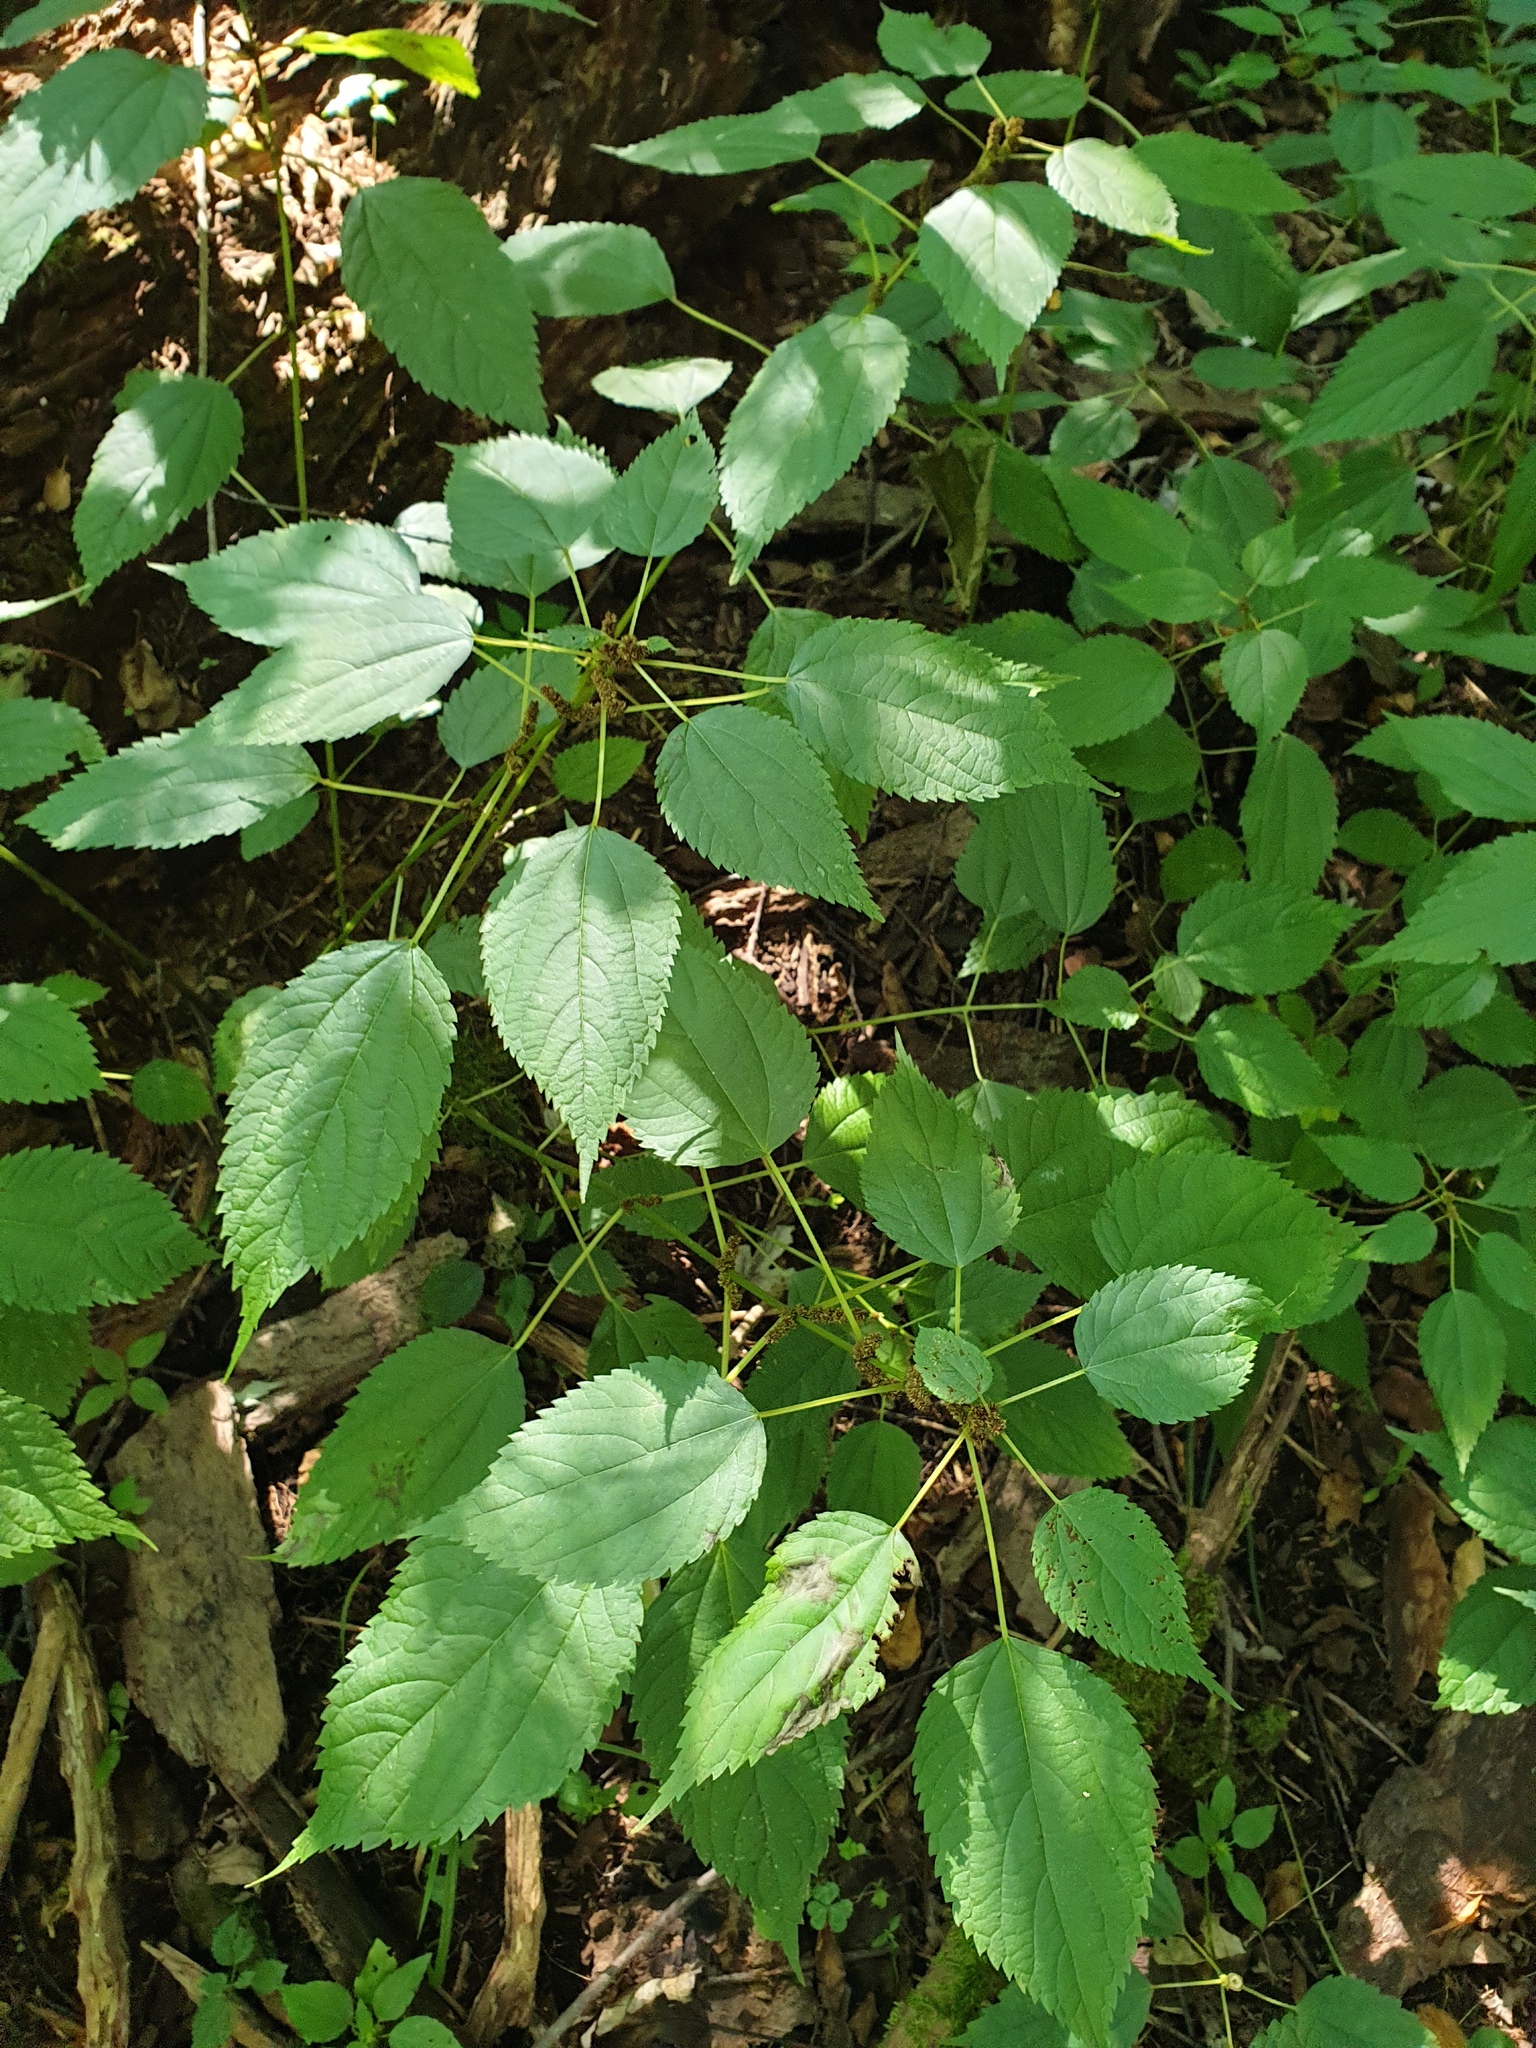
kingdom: Plantae
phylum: Tracheophyta
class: Magnoliopsida
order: Rosales
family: Urticaceae
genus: Boehmeria
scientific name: Boehmeria cylindrica
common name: Bog-hemp
